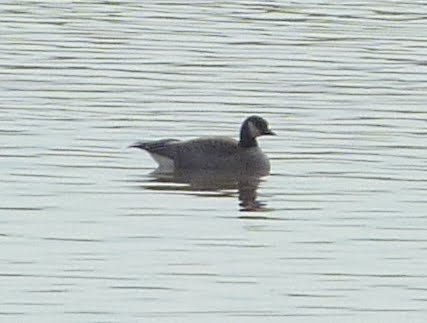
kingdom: Animalia
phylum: Chordata
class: Aves
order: Anseriformes
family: Anatidae
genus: Branta
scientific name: Branta hutchinsii
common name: Cackling goose
